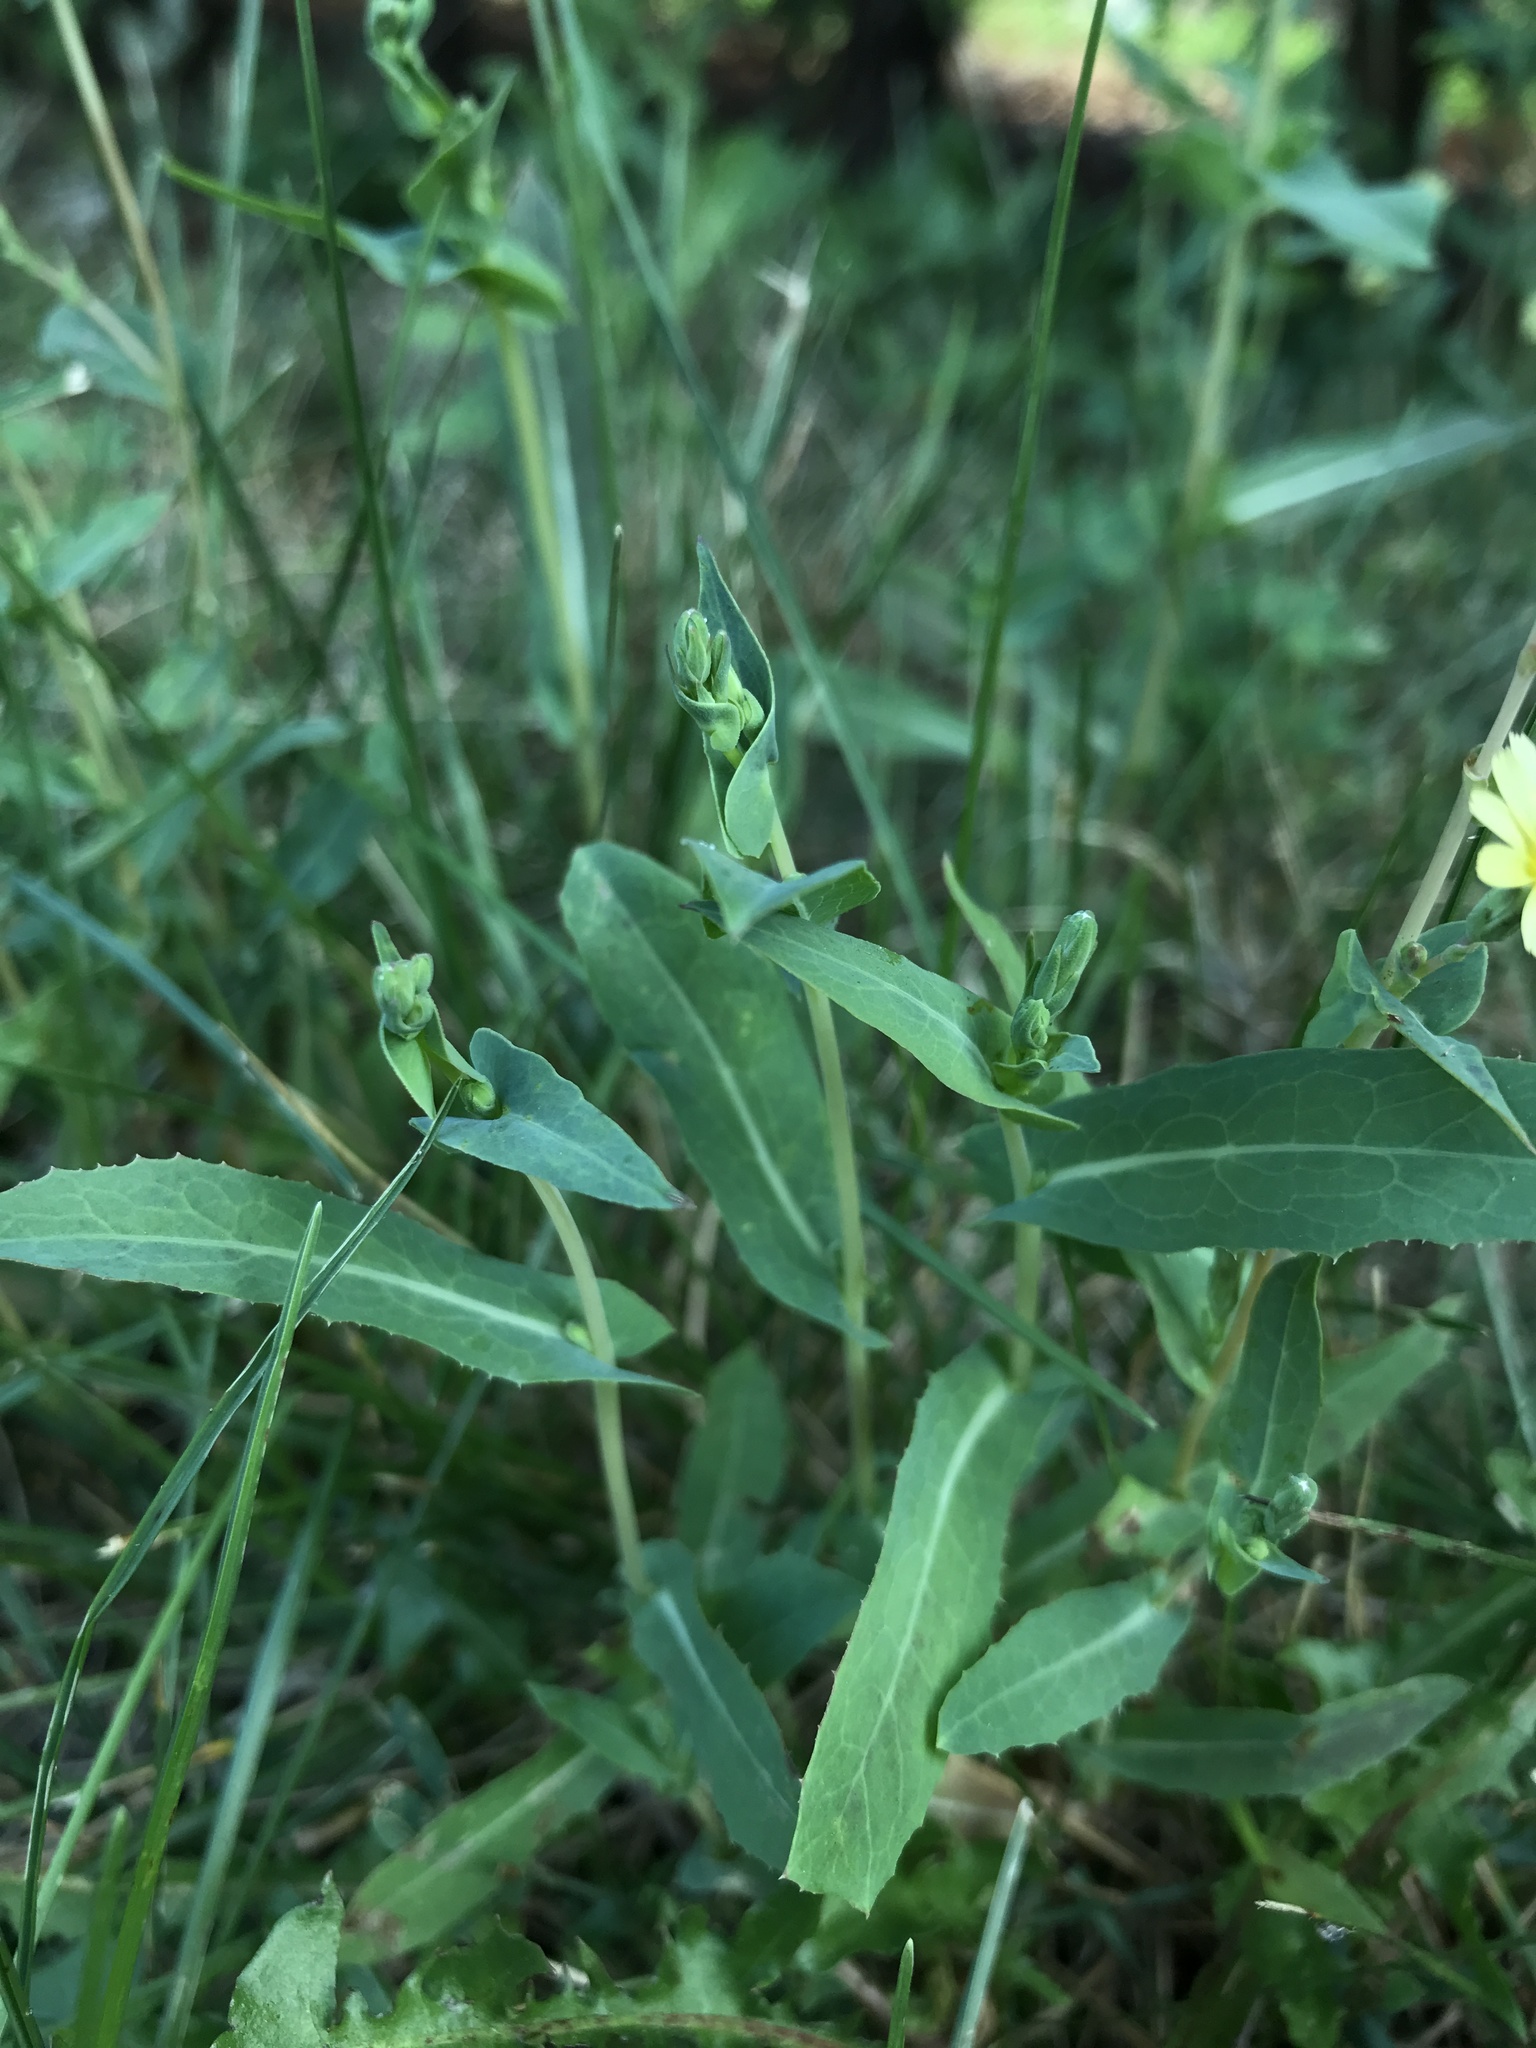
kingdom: Plantae
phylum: Tracheophyta
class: Magnoliopsida
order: Asterales
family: Asteraceae
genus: Lactuca
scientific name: Lactuca serriola
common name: Prickly lettuce
